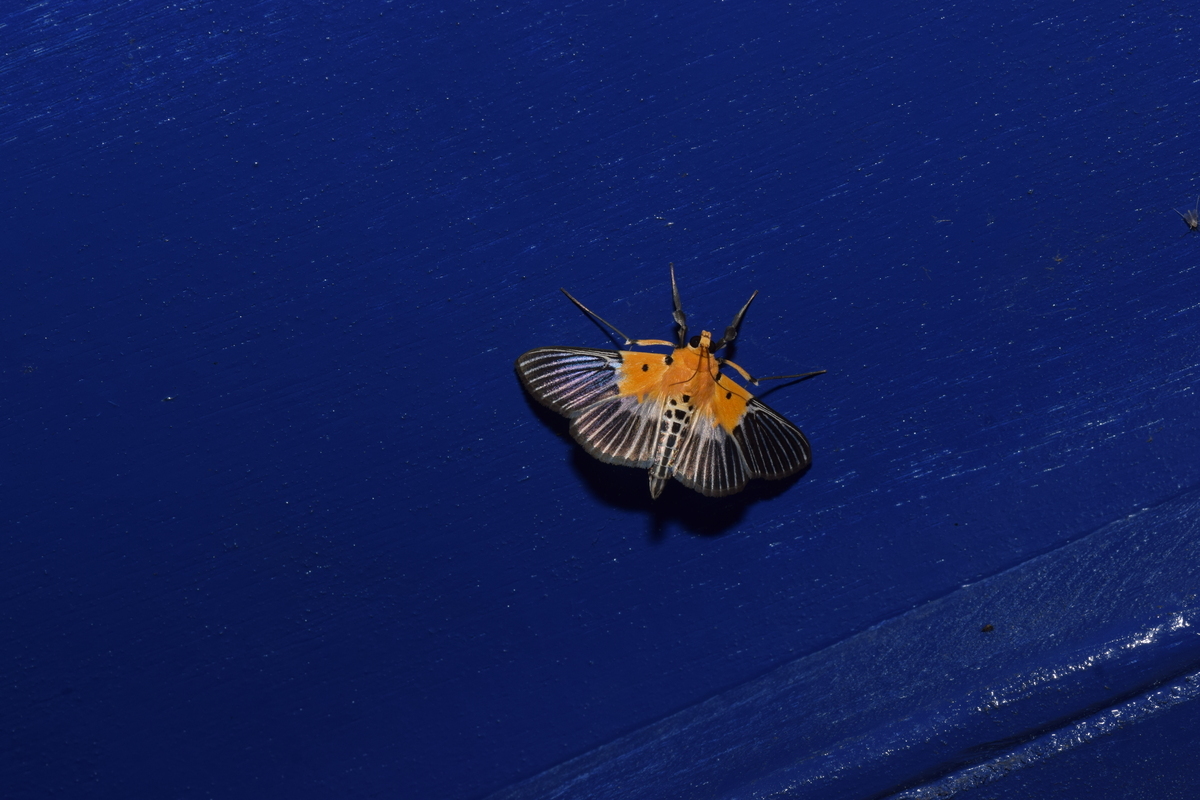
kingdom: Animalia
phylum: Arthropoda
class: Insecta
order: Lepidoptera
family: Crambidae
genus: Nevrina
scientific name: Nevrina procopia
